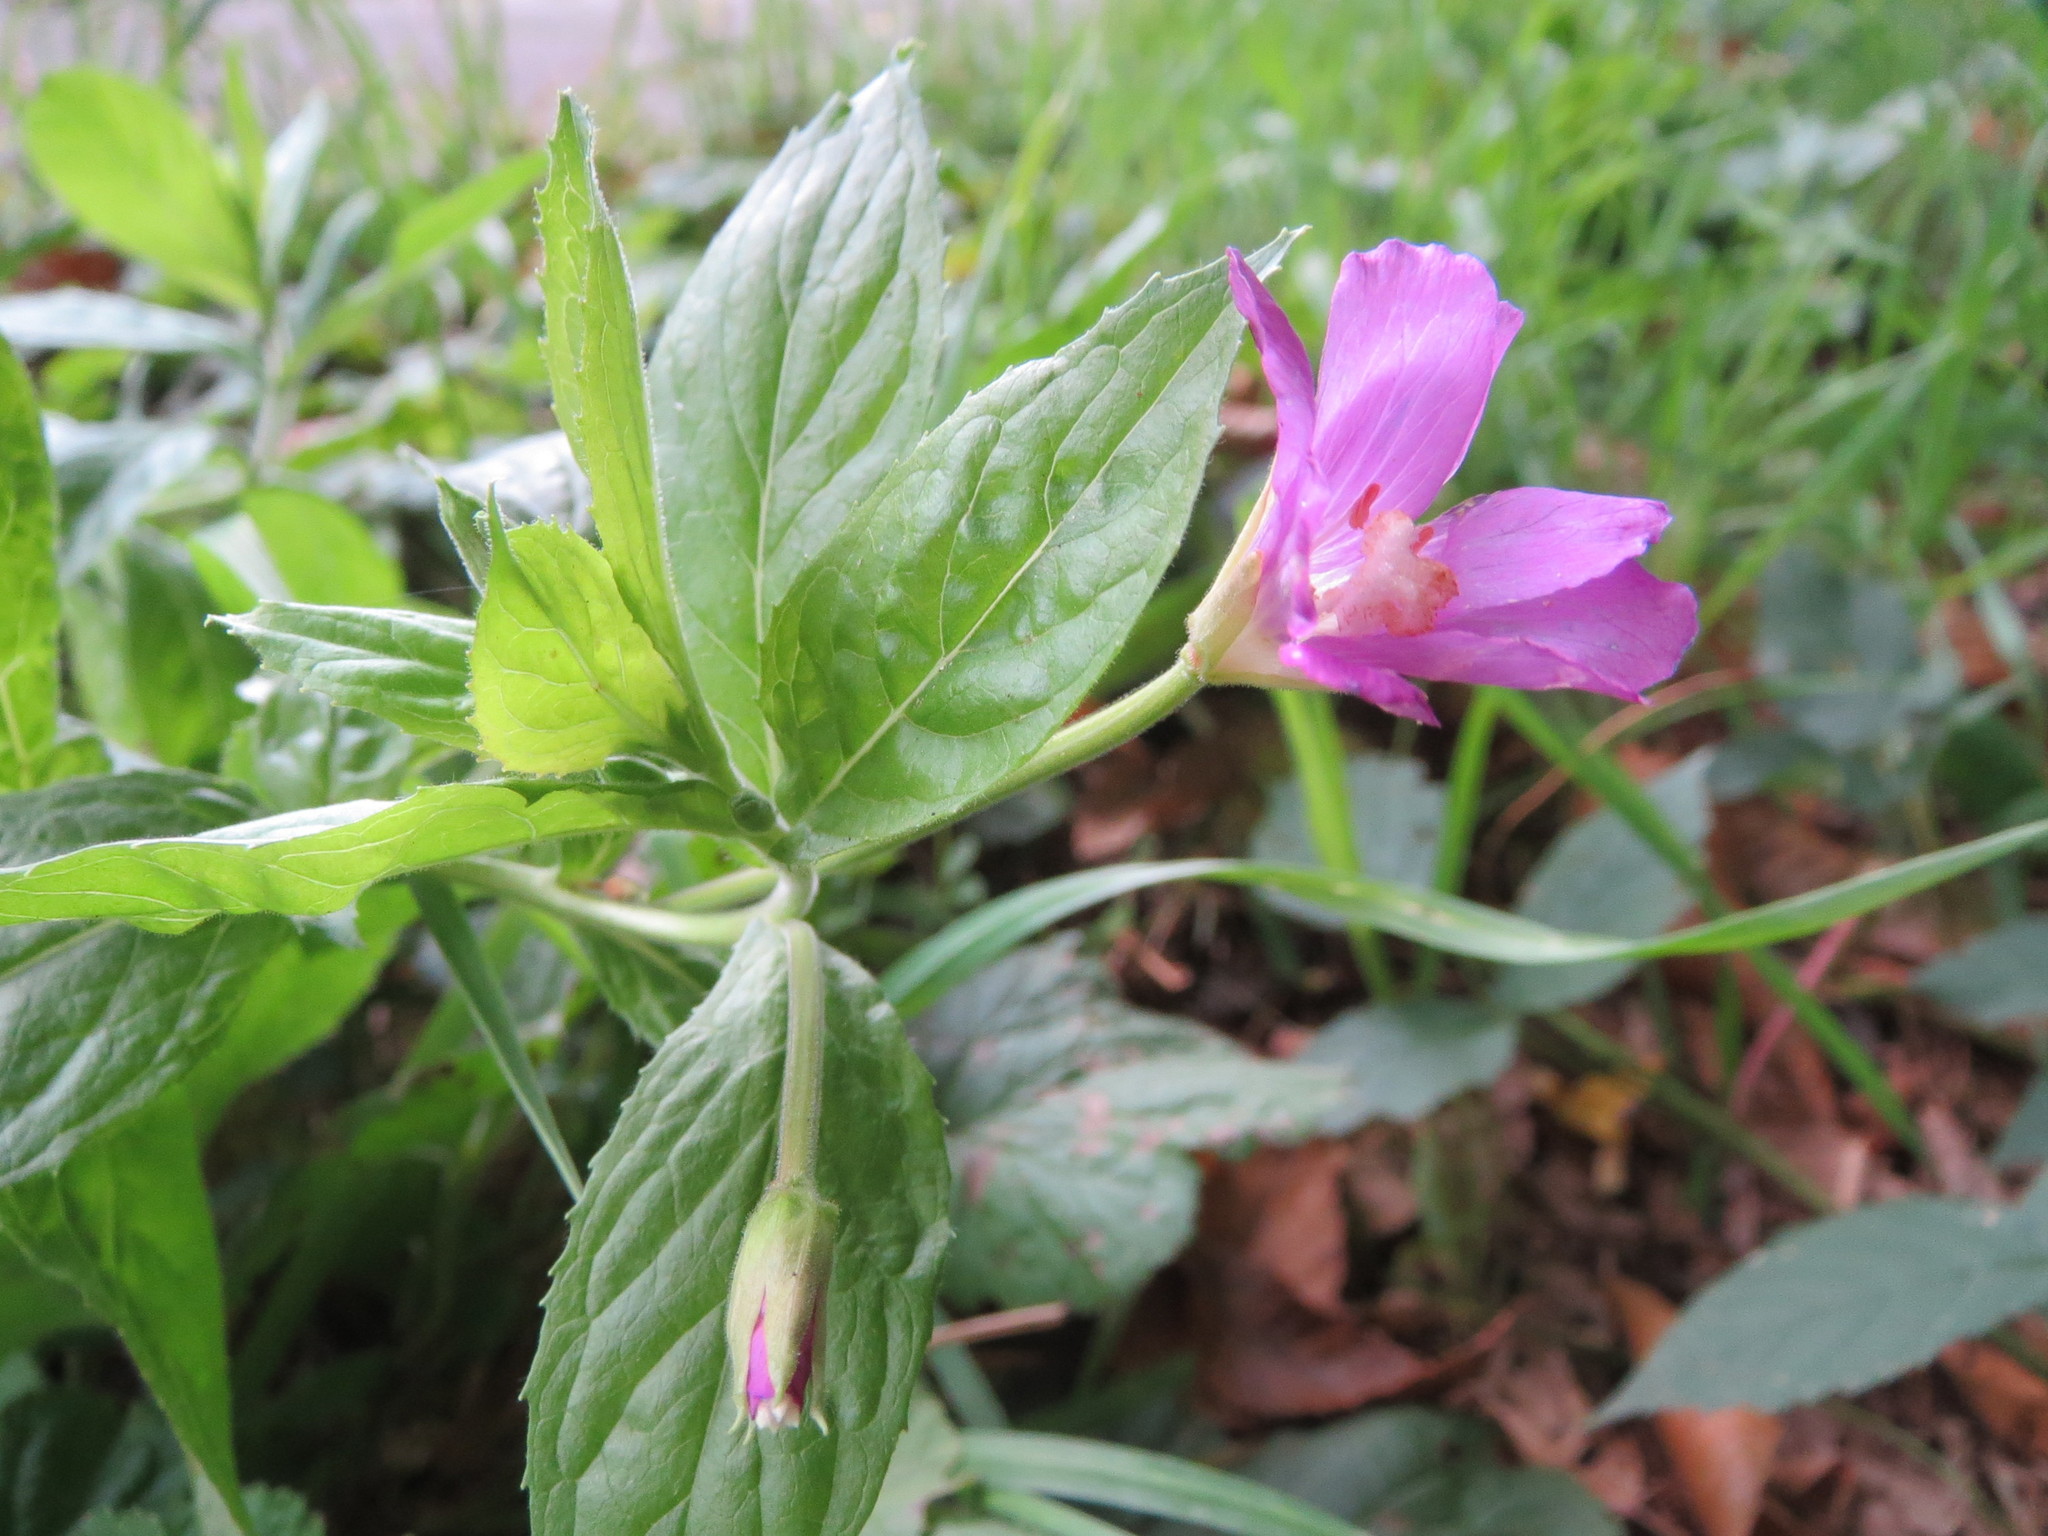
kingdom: Plantae
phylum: Tracheophyta
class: Magnoliopsida
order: Myrtales
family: Onagraceae
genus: Epilobium
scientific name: Epilobium hirsutum
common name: Great willowherb
